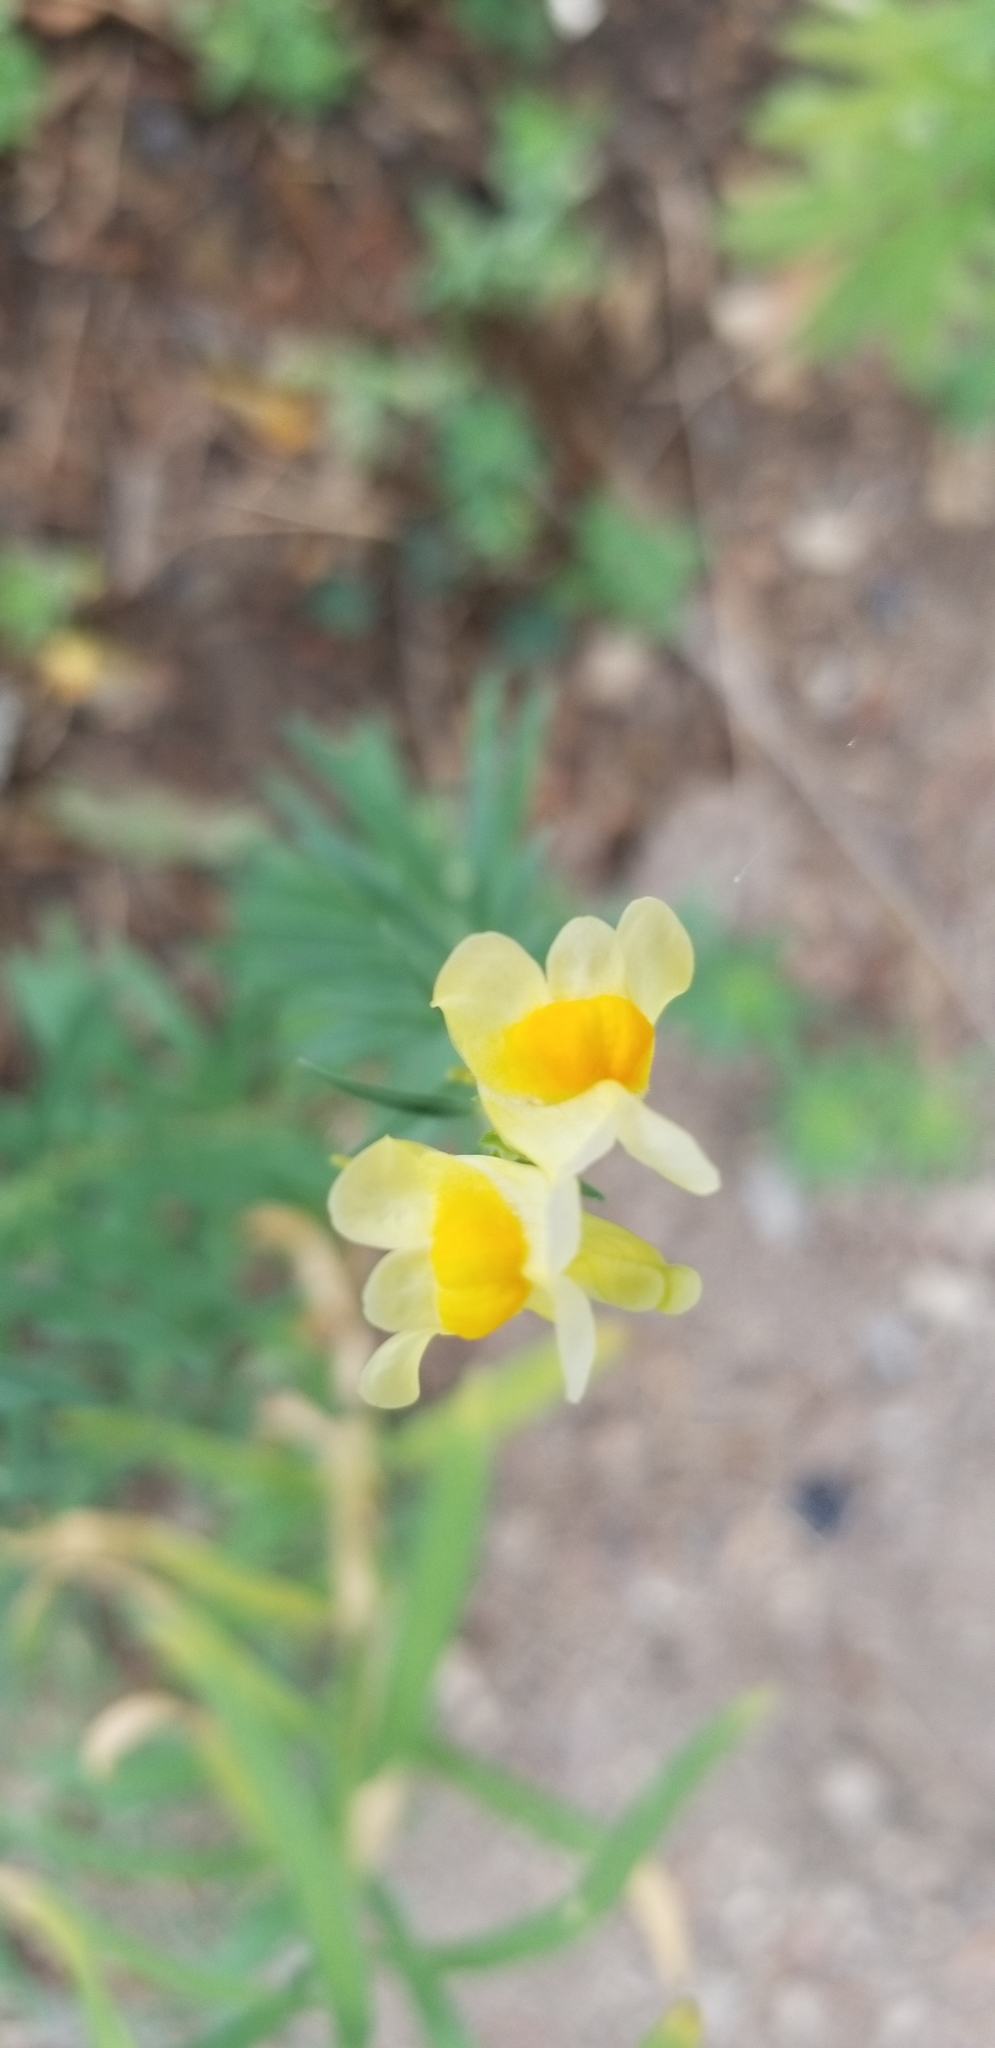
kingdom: Plantae
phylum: Tracheophyta
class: Magnoliopsida
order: Lamiales
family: Plantaginaceae
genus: Linaria
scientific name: Linaria vulgaris
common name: Butter and eggs
